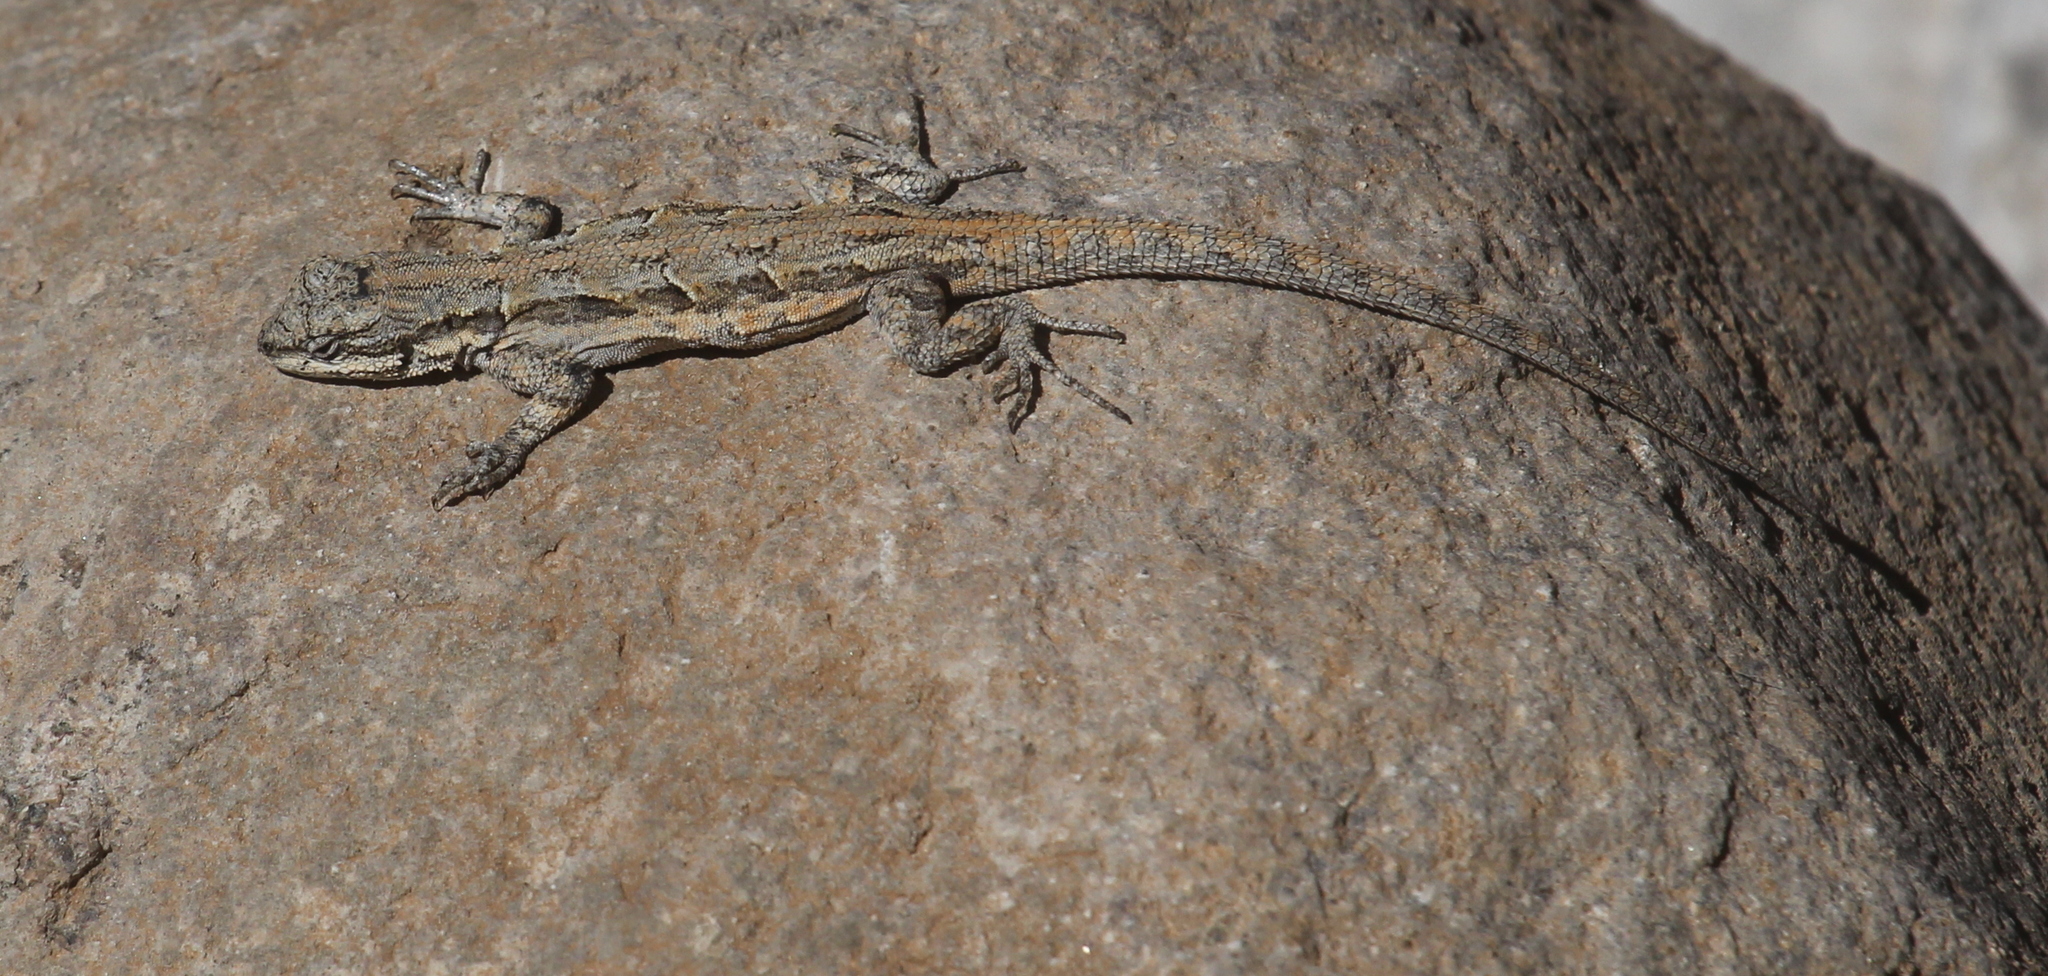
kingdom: Animalia
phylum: Chordata
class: Squamata
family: Phrynosomatidae
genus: Urosaurus
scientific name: Urosaurus ornatus
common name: Ornate tree lizard
